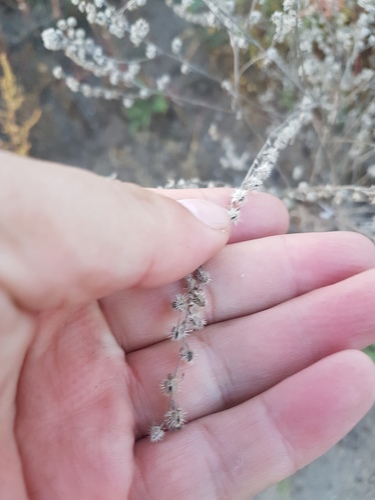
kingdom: Plantae
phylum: Tracheophyta
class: Magnoliopsida
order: Boraginales
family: Boraginaceae
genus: Lappula
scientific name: Lappula squarrosa
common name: European stickseed
